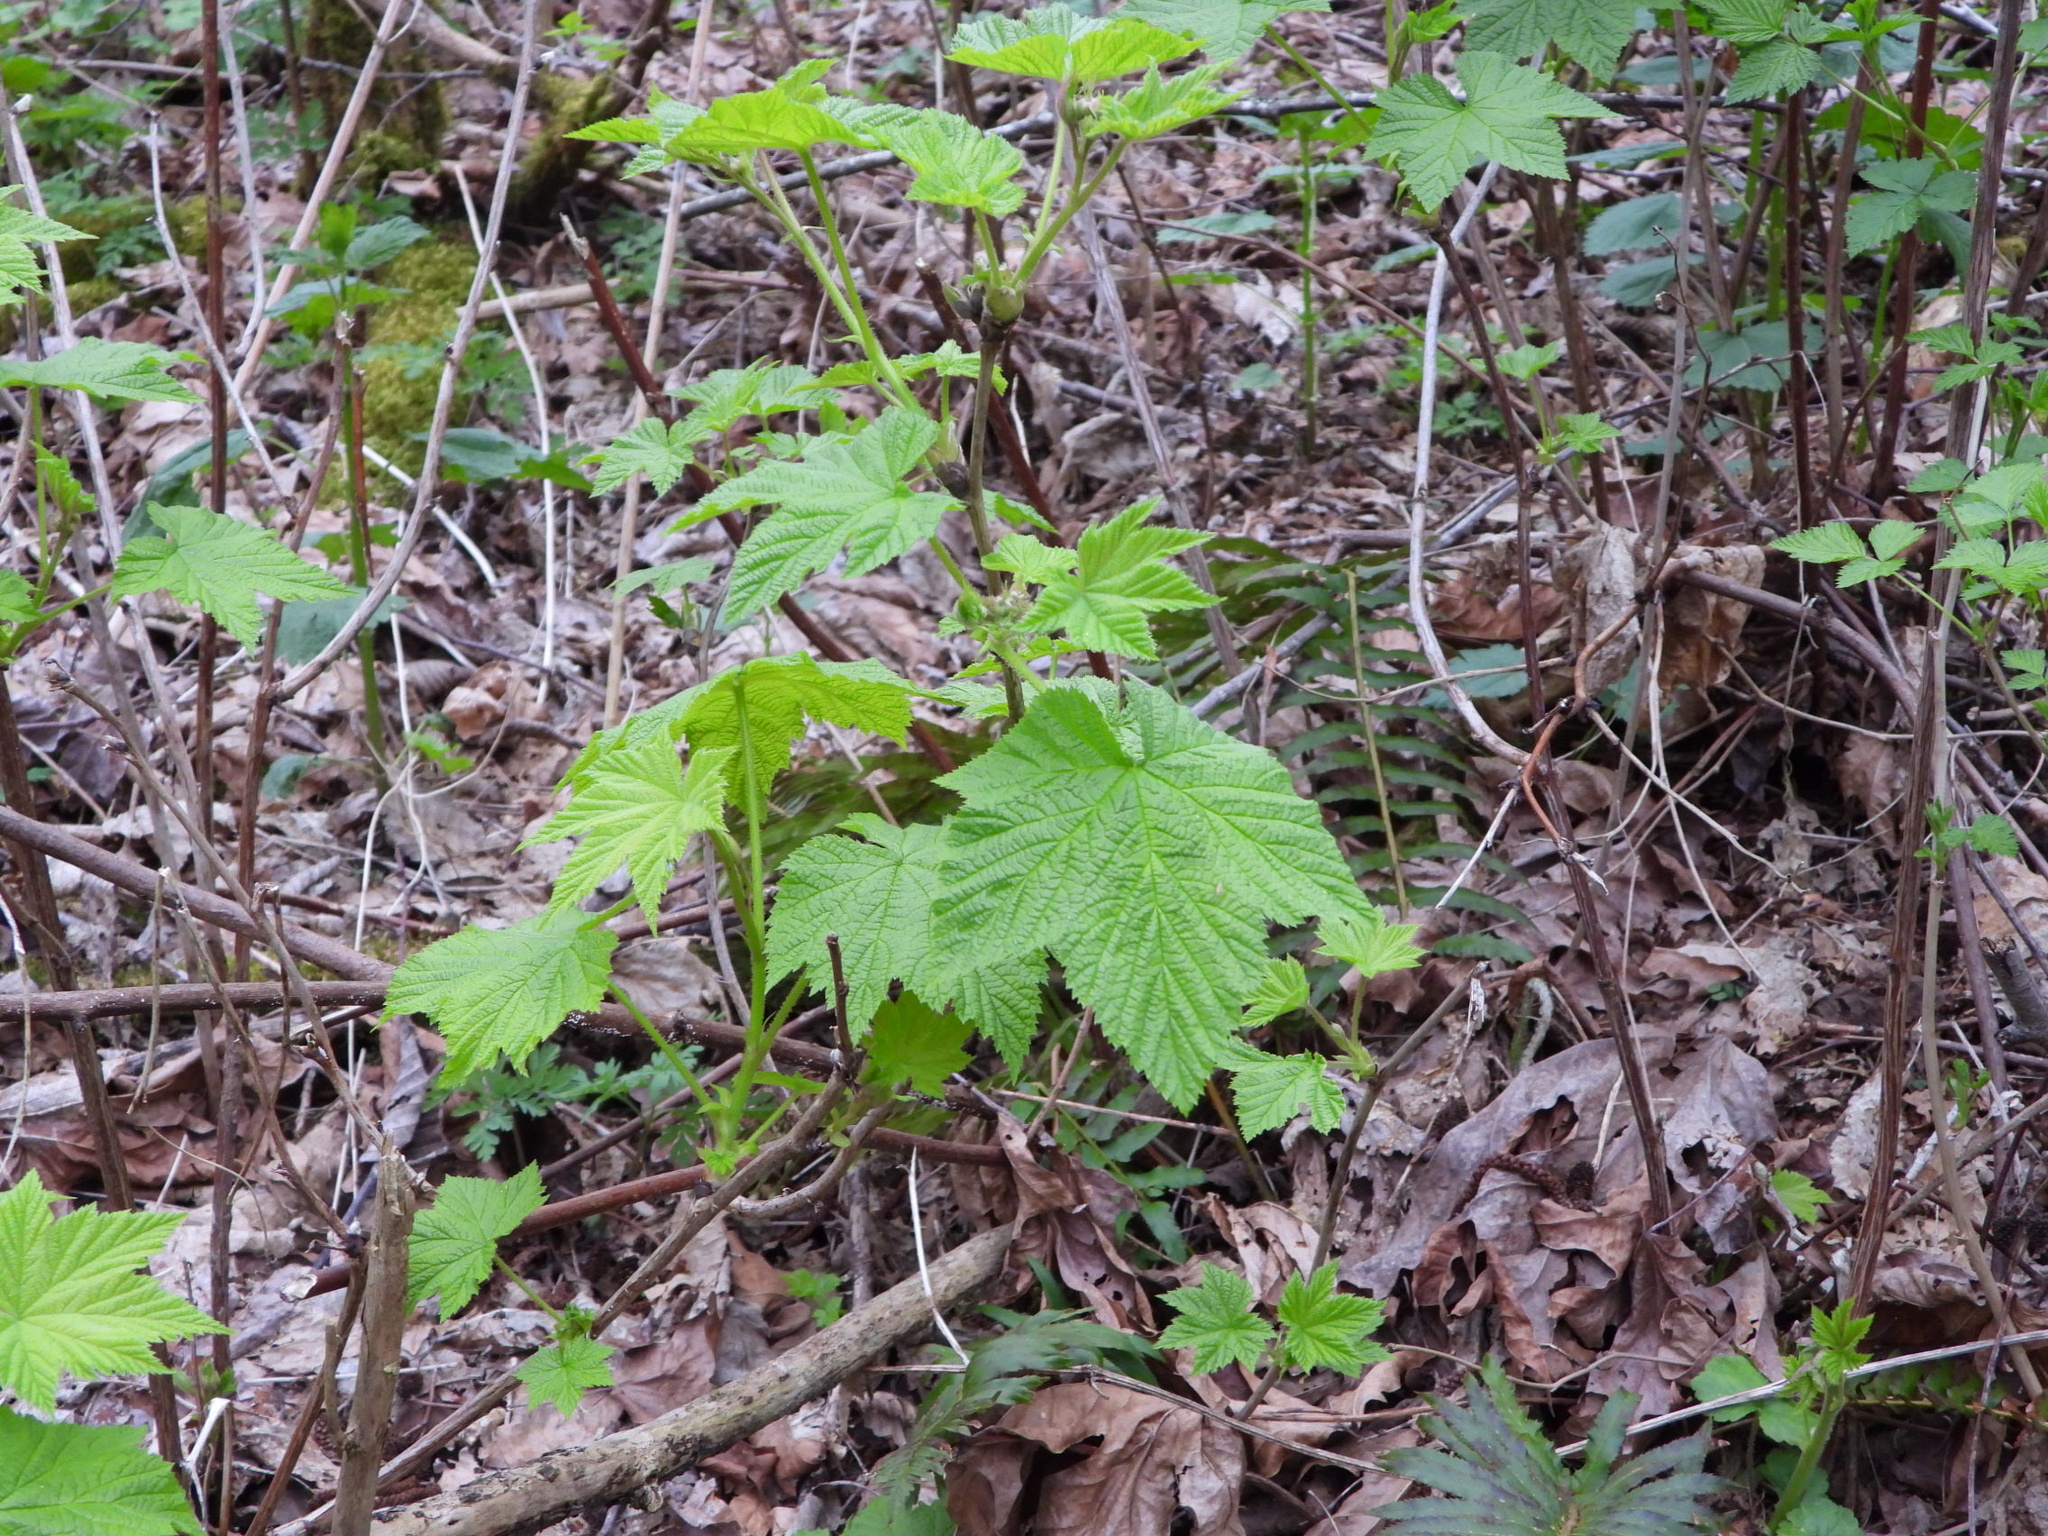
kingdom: Plantae
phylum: Tracheophyta
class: Magnoliopsida
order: Rosales
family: Rosaceae
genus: Rubus
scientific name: Rubus parviflorus
